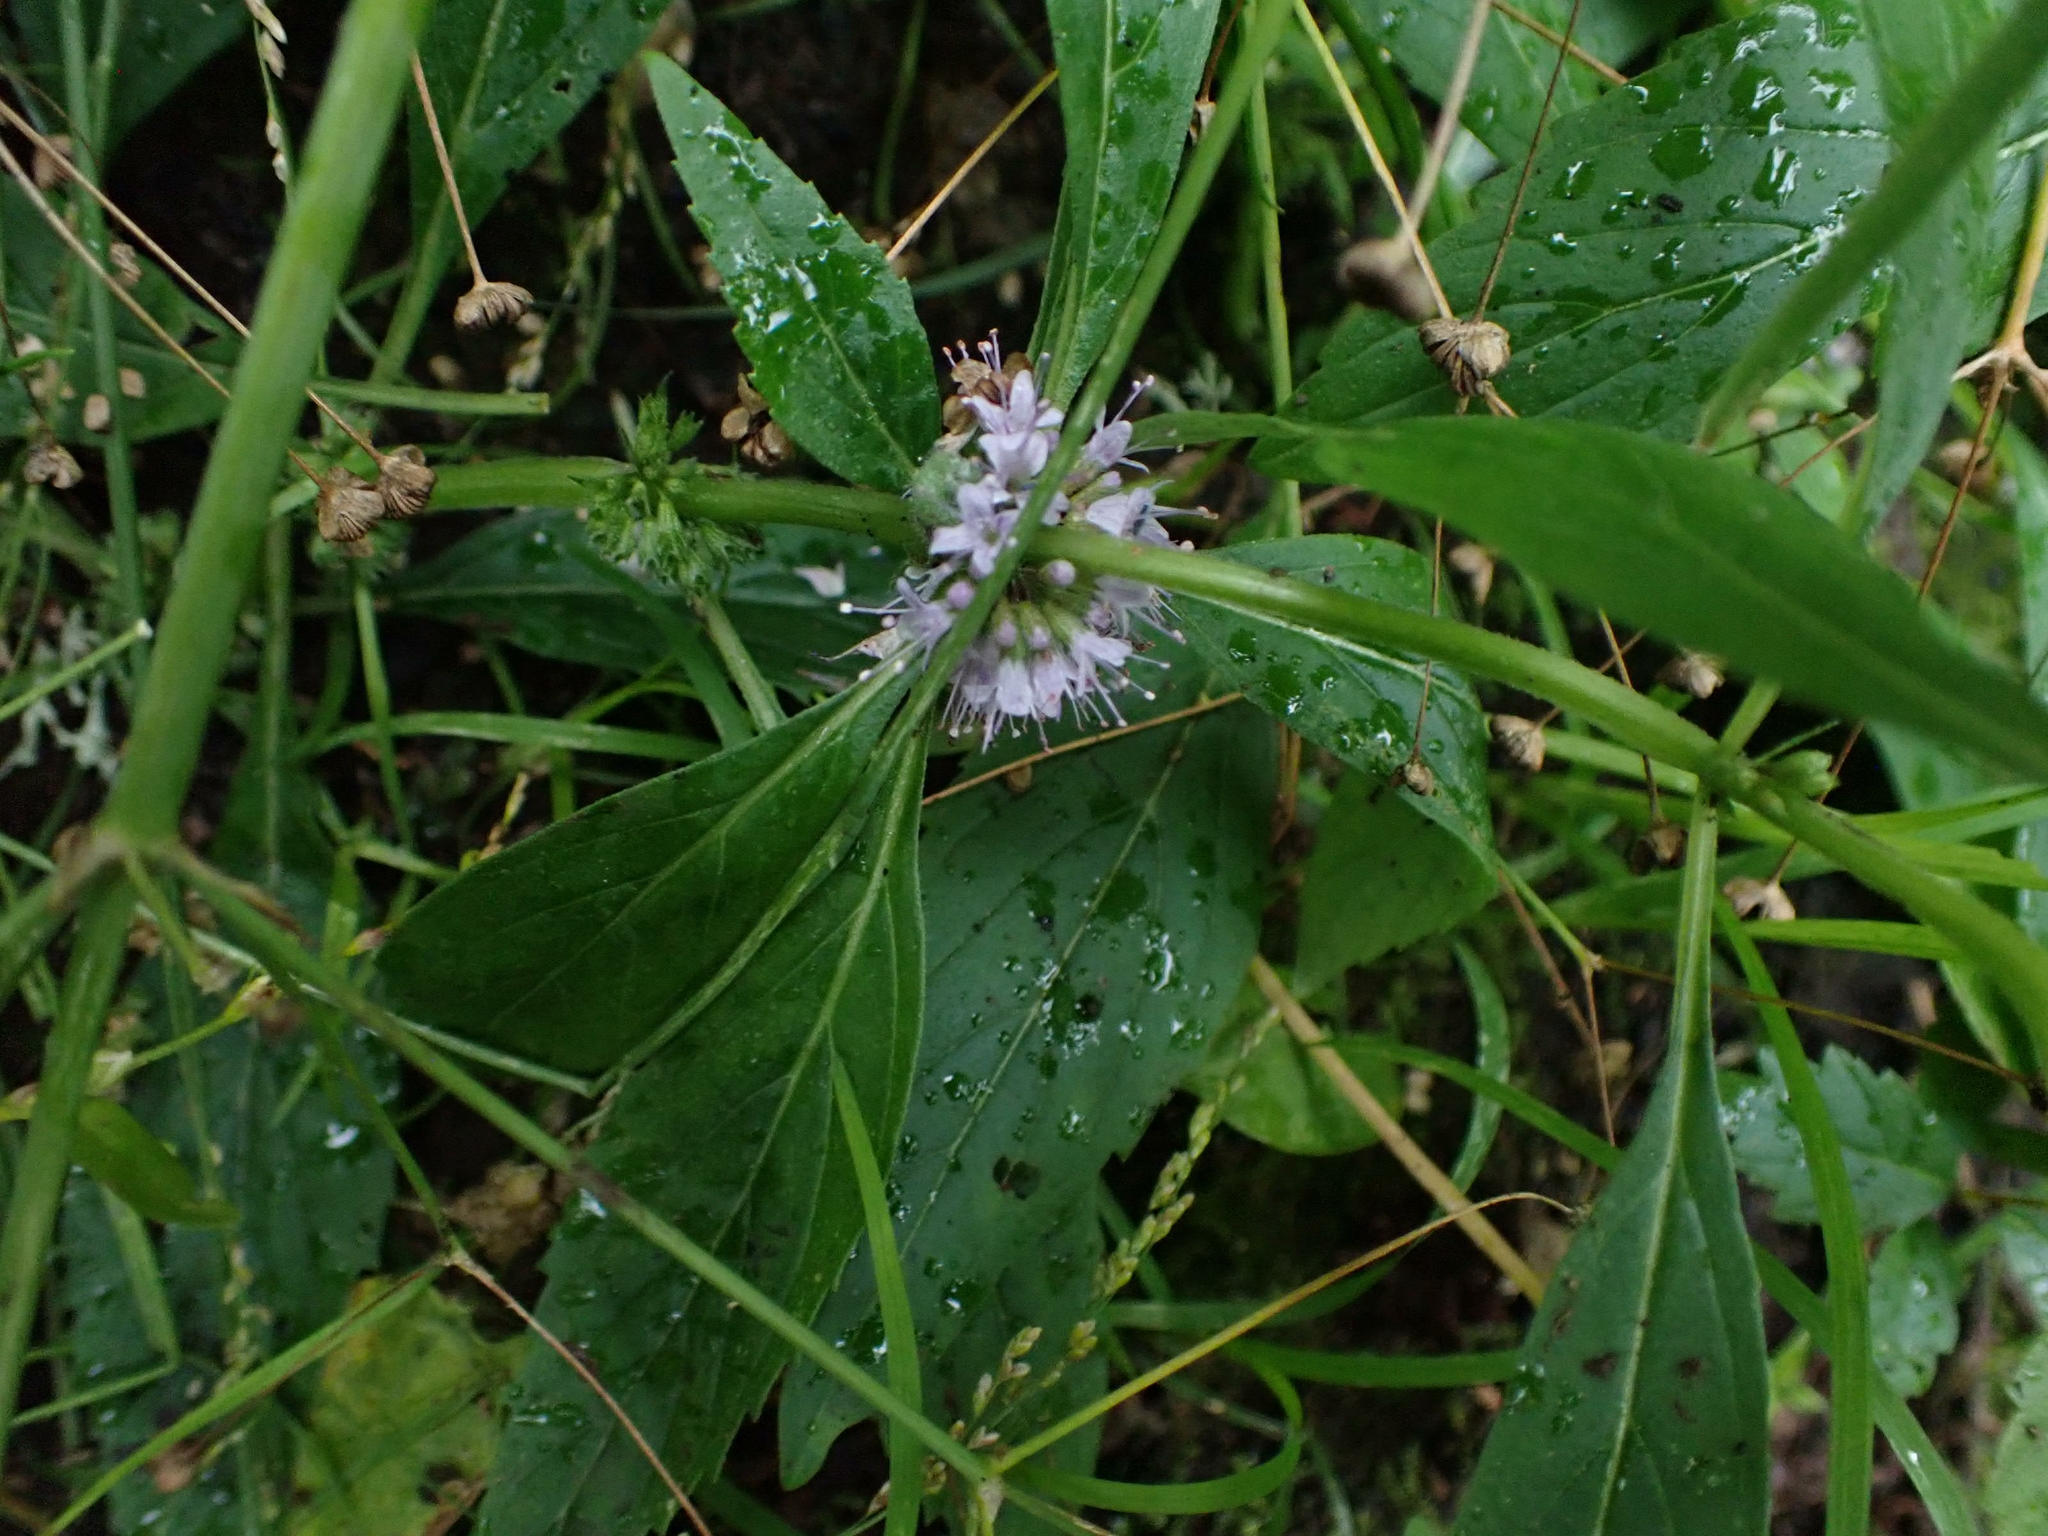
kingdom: Plantae
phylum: Tracheophyta
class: Magnoliopsida
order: Lamiales
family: Lamiaceae
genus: Mentha
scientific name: Mentha canadensis
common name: American corn mint
